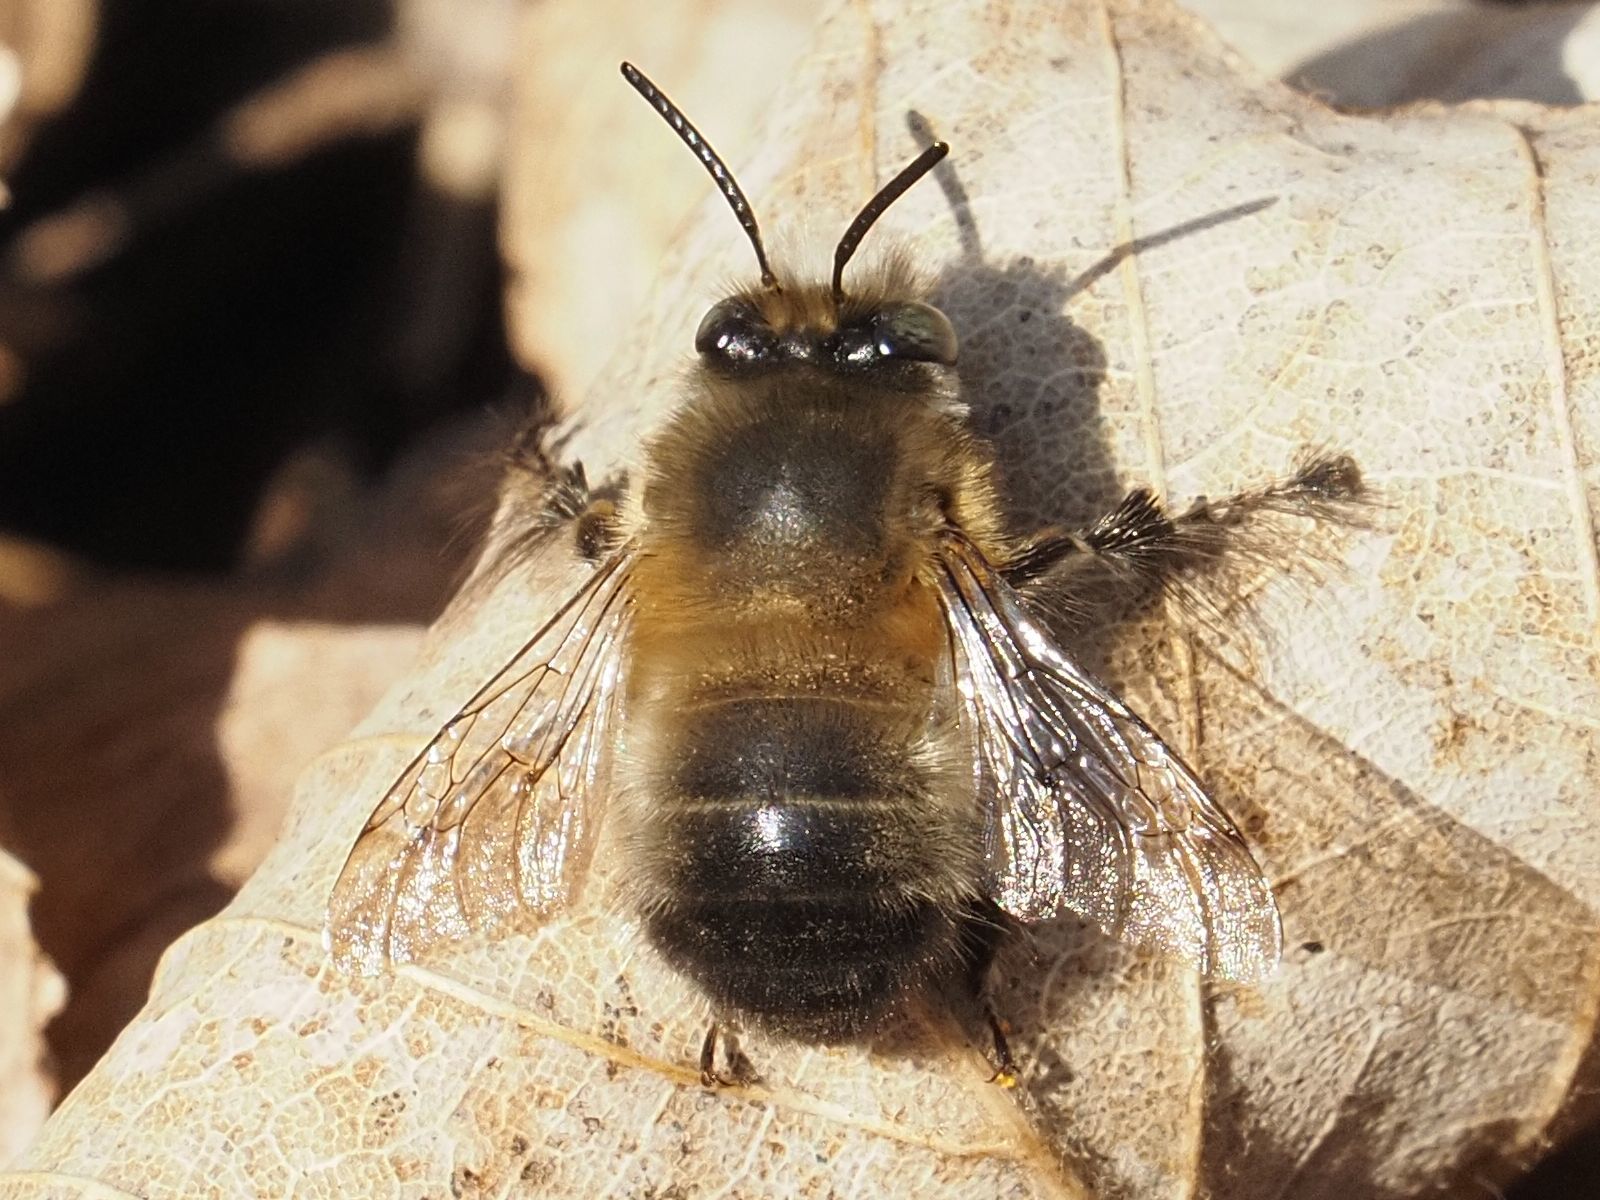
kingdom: Animalia
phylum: Arthropoda
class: Insecta
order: Hymenoptera
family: Apidae
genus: Anthophora
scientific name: Anthophora plumipes
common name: Hairy-footed flower bee
